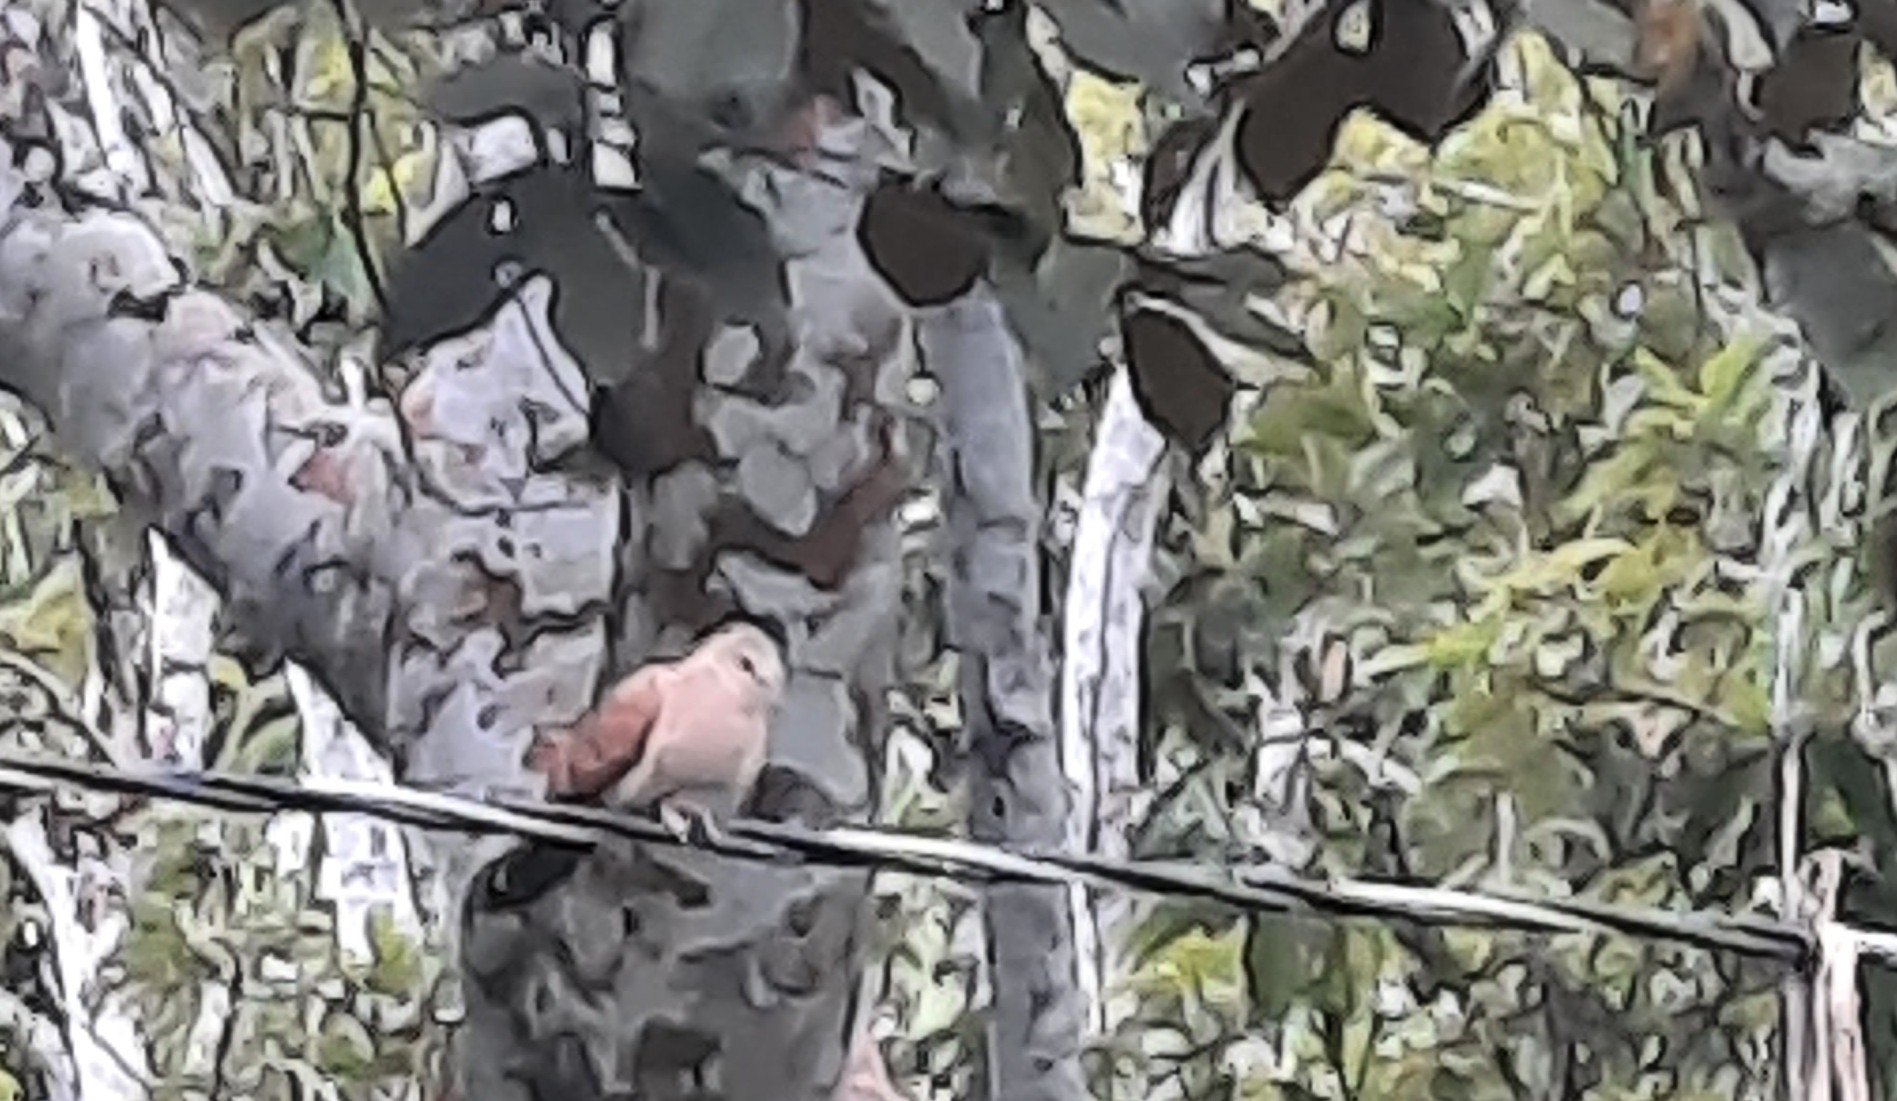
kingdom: Animalia
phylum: Chordata
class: Aves
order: Columbiformes
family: Columbidae
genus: Columbina
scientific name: Columbina talpacoti
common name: Ruddy ground dove
